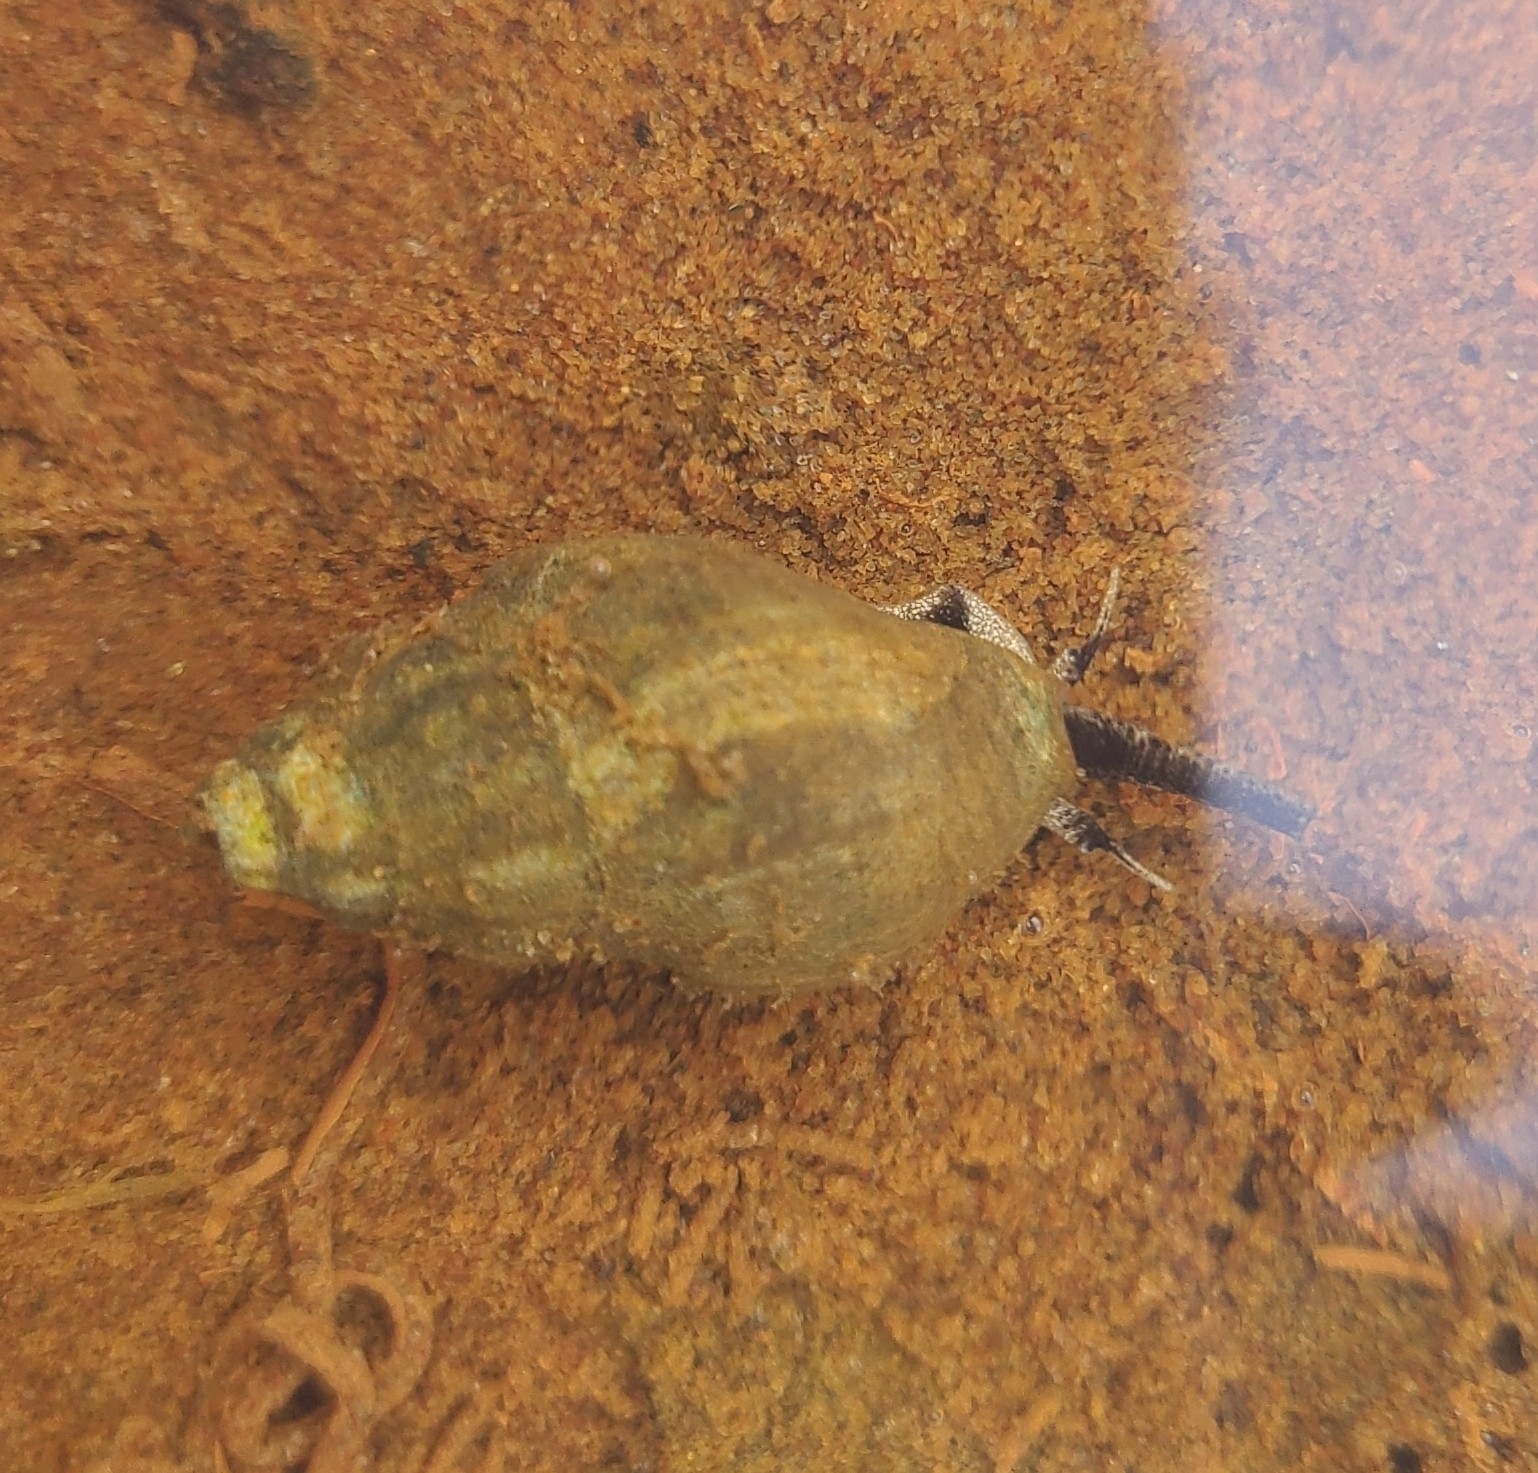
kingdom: Animalia
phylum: Mollusca
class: Gastropoda
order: Neogastropoda
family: Cominellidae
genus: Cominella
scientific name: Cominella glandiformis
